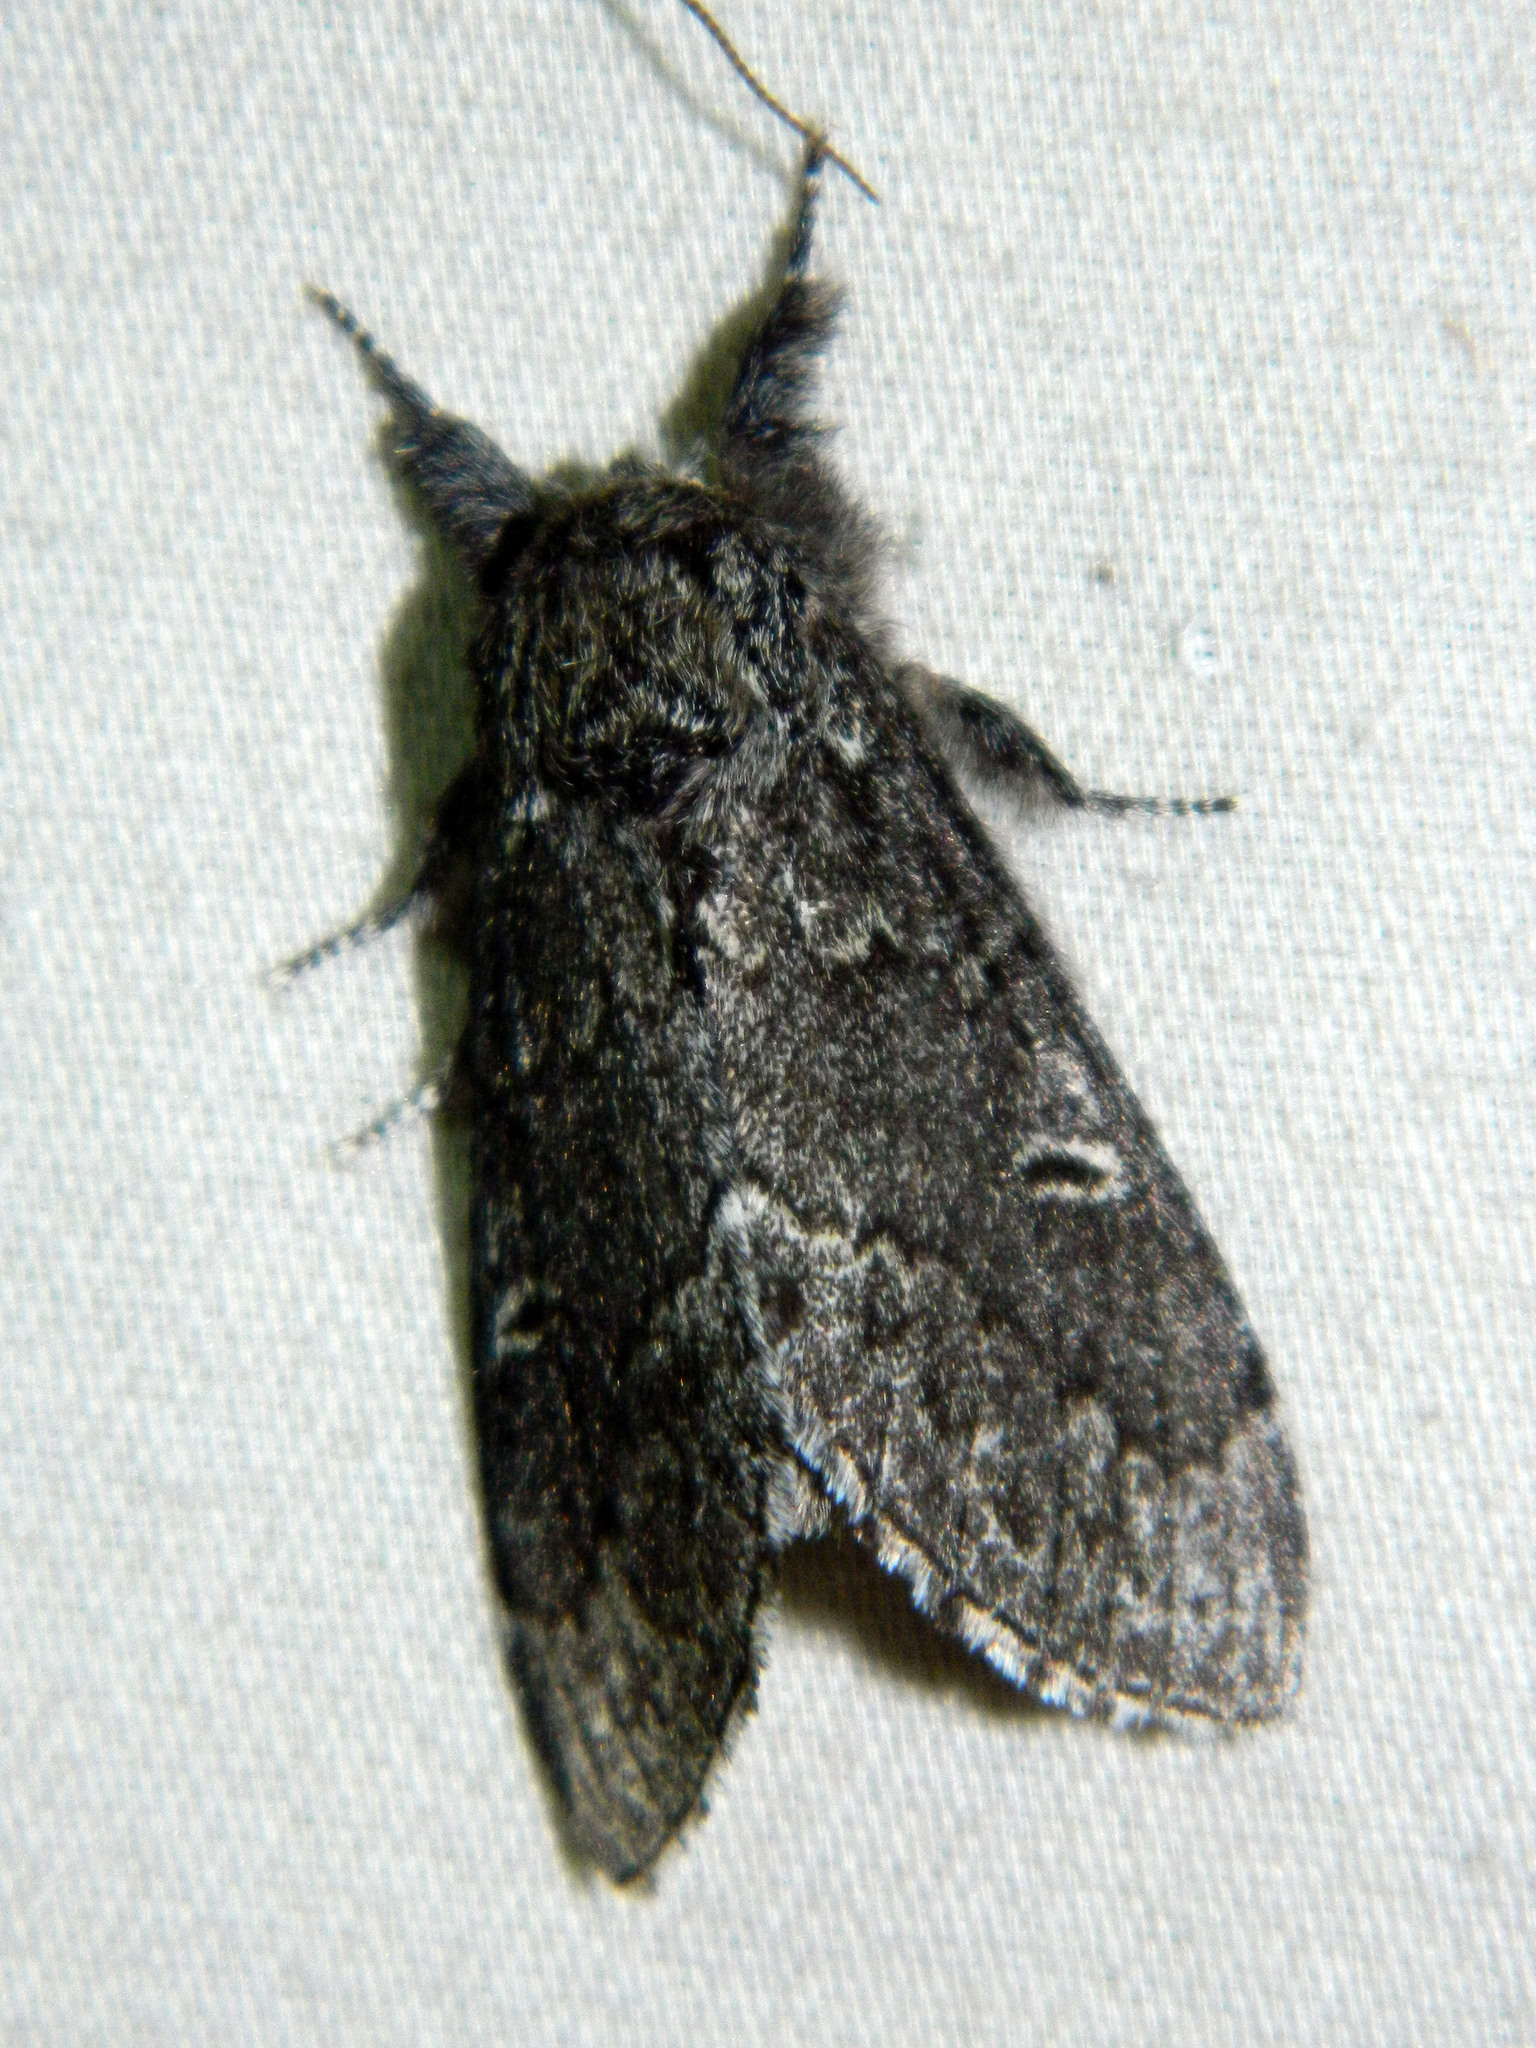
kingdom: Animalia
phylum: Arthropoda
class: Insecta
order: Lepidoptera
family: Notodontidae
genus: Notodonta
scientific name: Notodonta torva
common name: Large dark prominent
